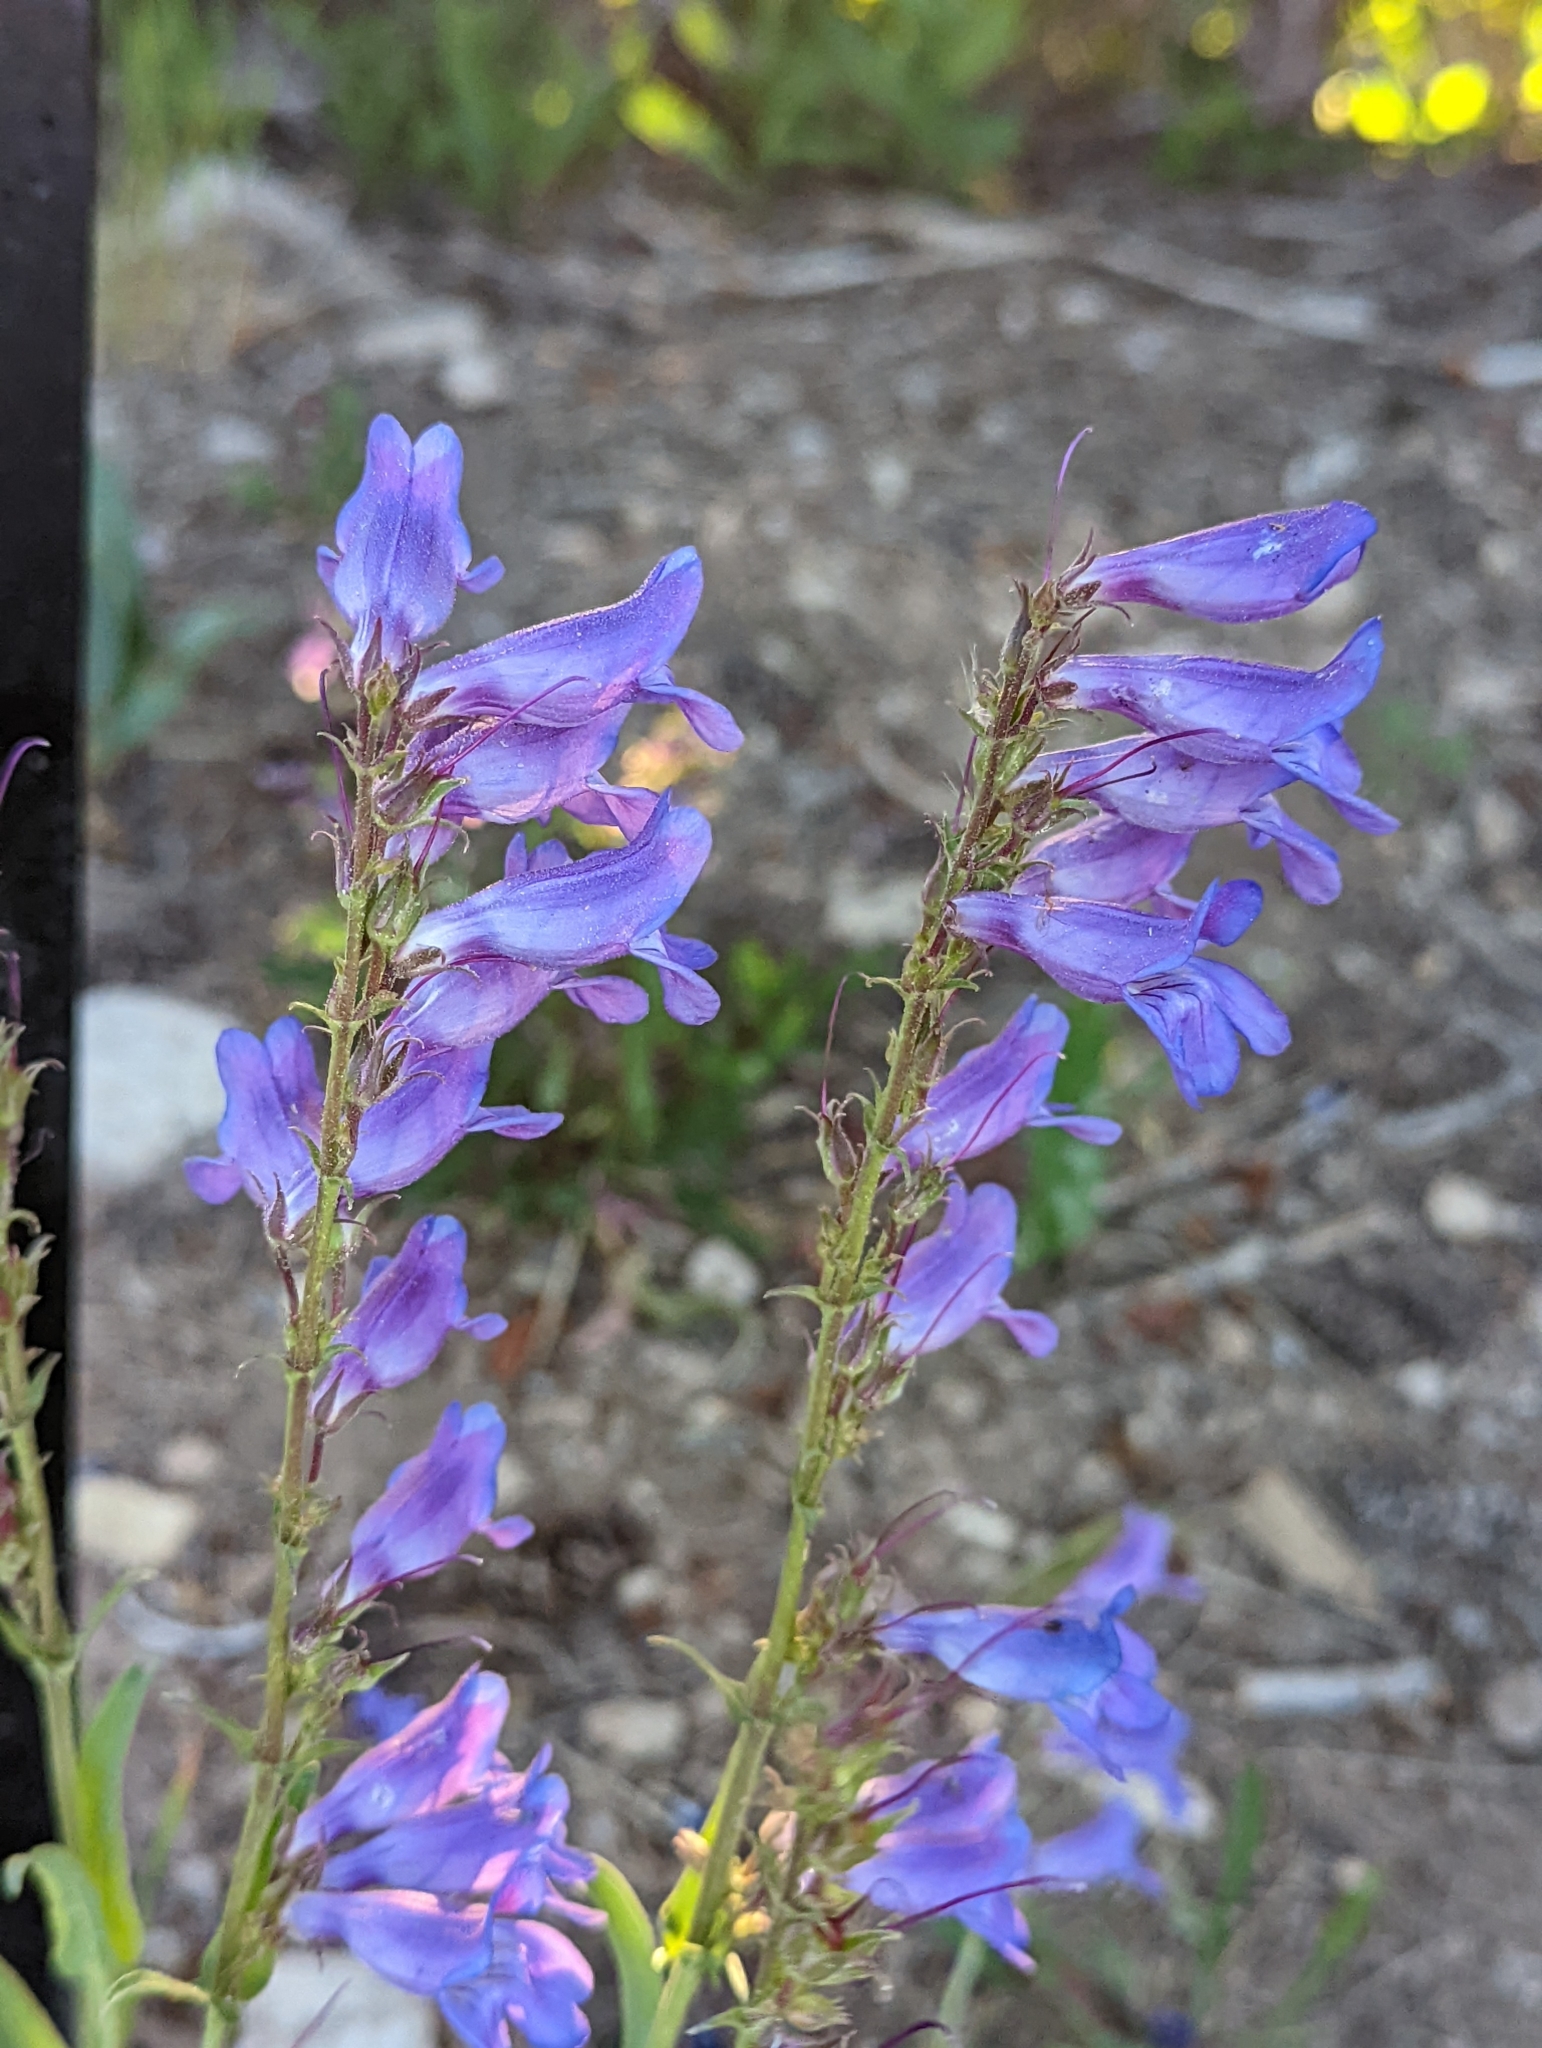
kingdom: Plantae
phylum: Tracheophyta
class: Magnoliopsida
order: Lamiales
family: Plantaginaceae
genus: Penstemon
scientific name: Penstemon leiophyllus
